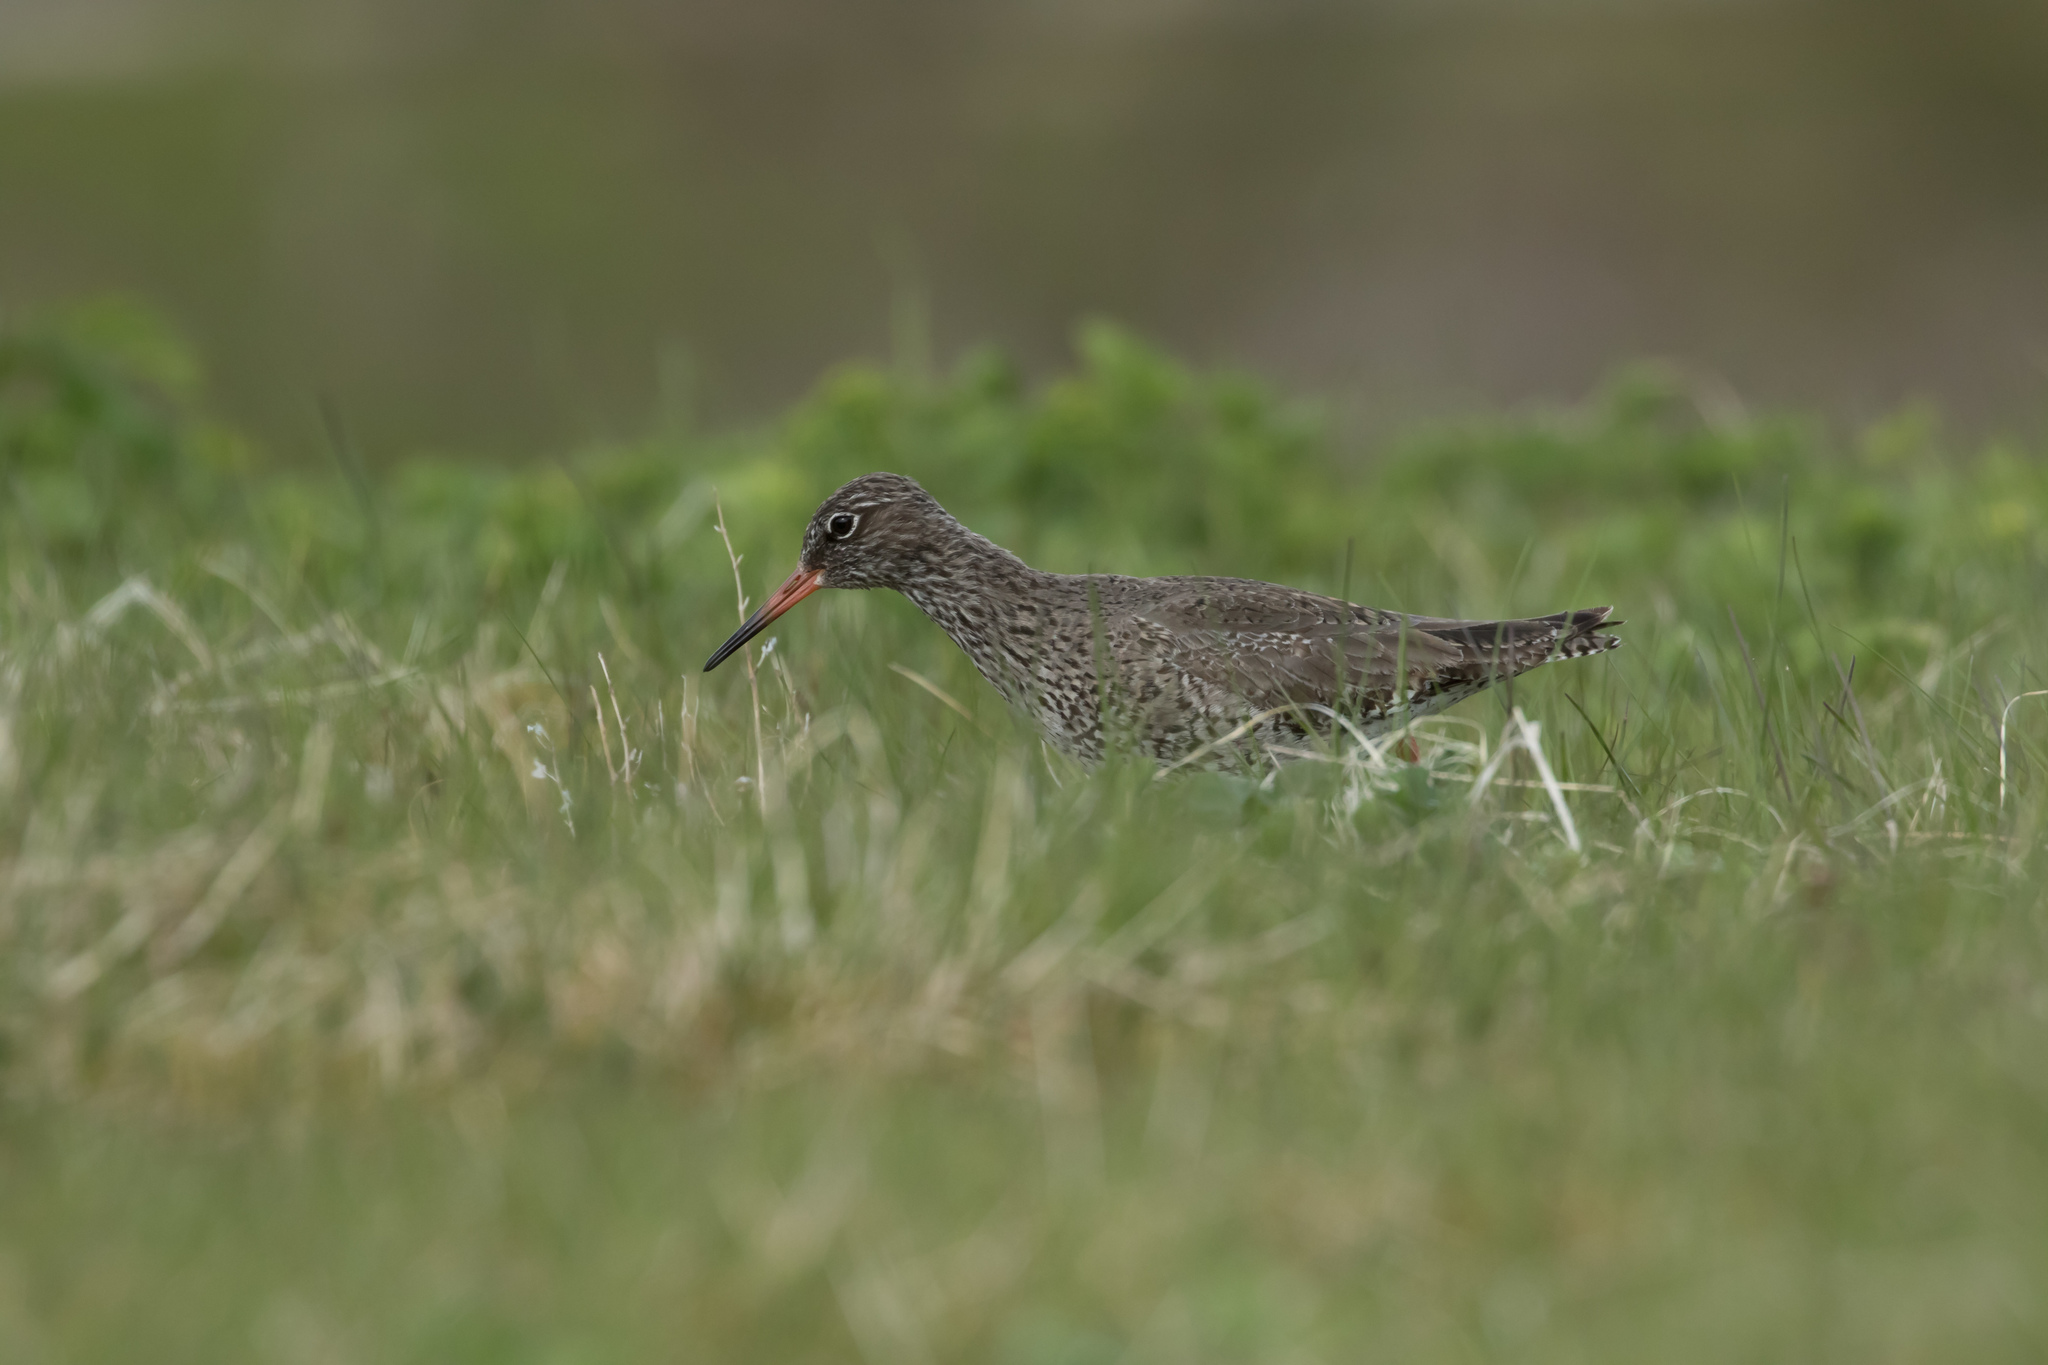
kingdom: Animalia
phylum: Chordata
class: Aves
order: Charadriiformes
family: Scolopacidae
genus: Tringa
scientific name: Tringa totanus
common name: Common redshank
